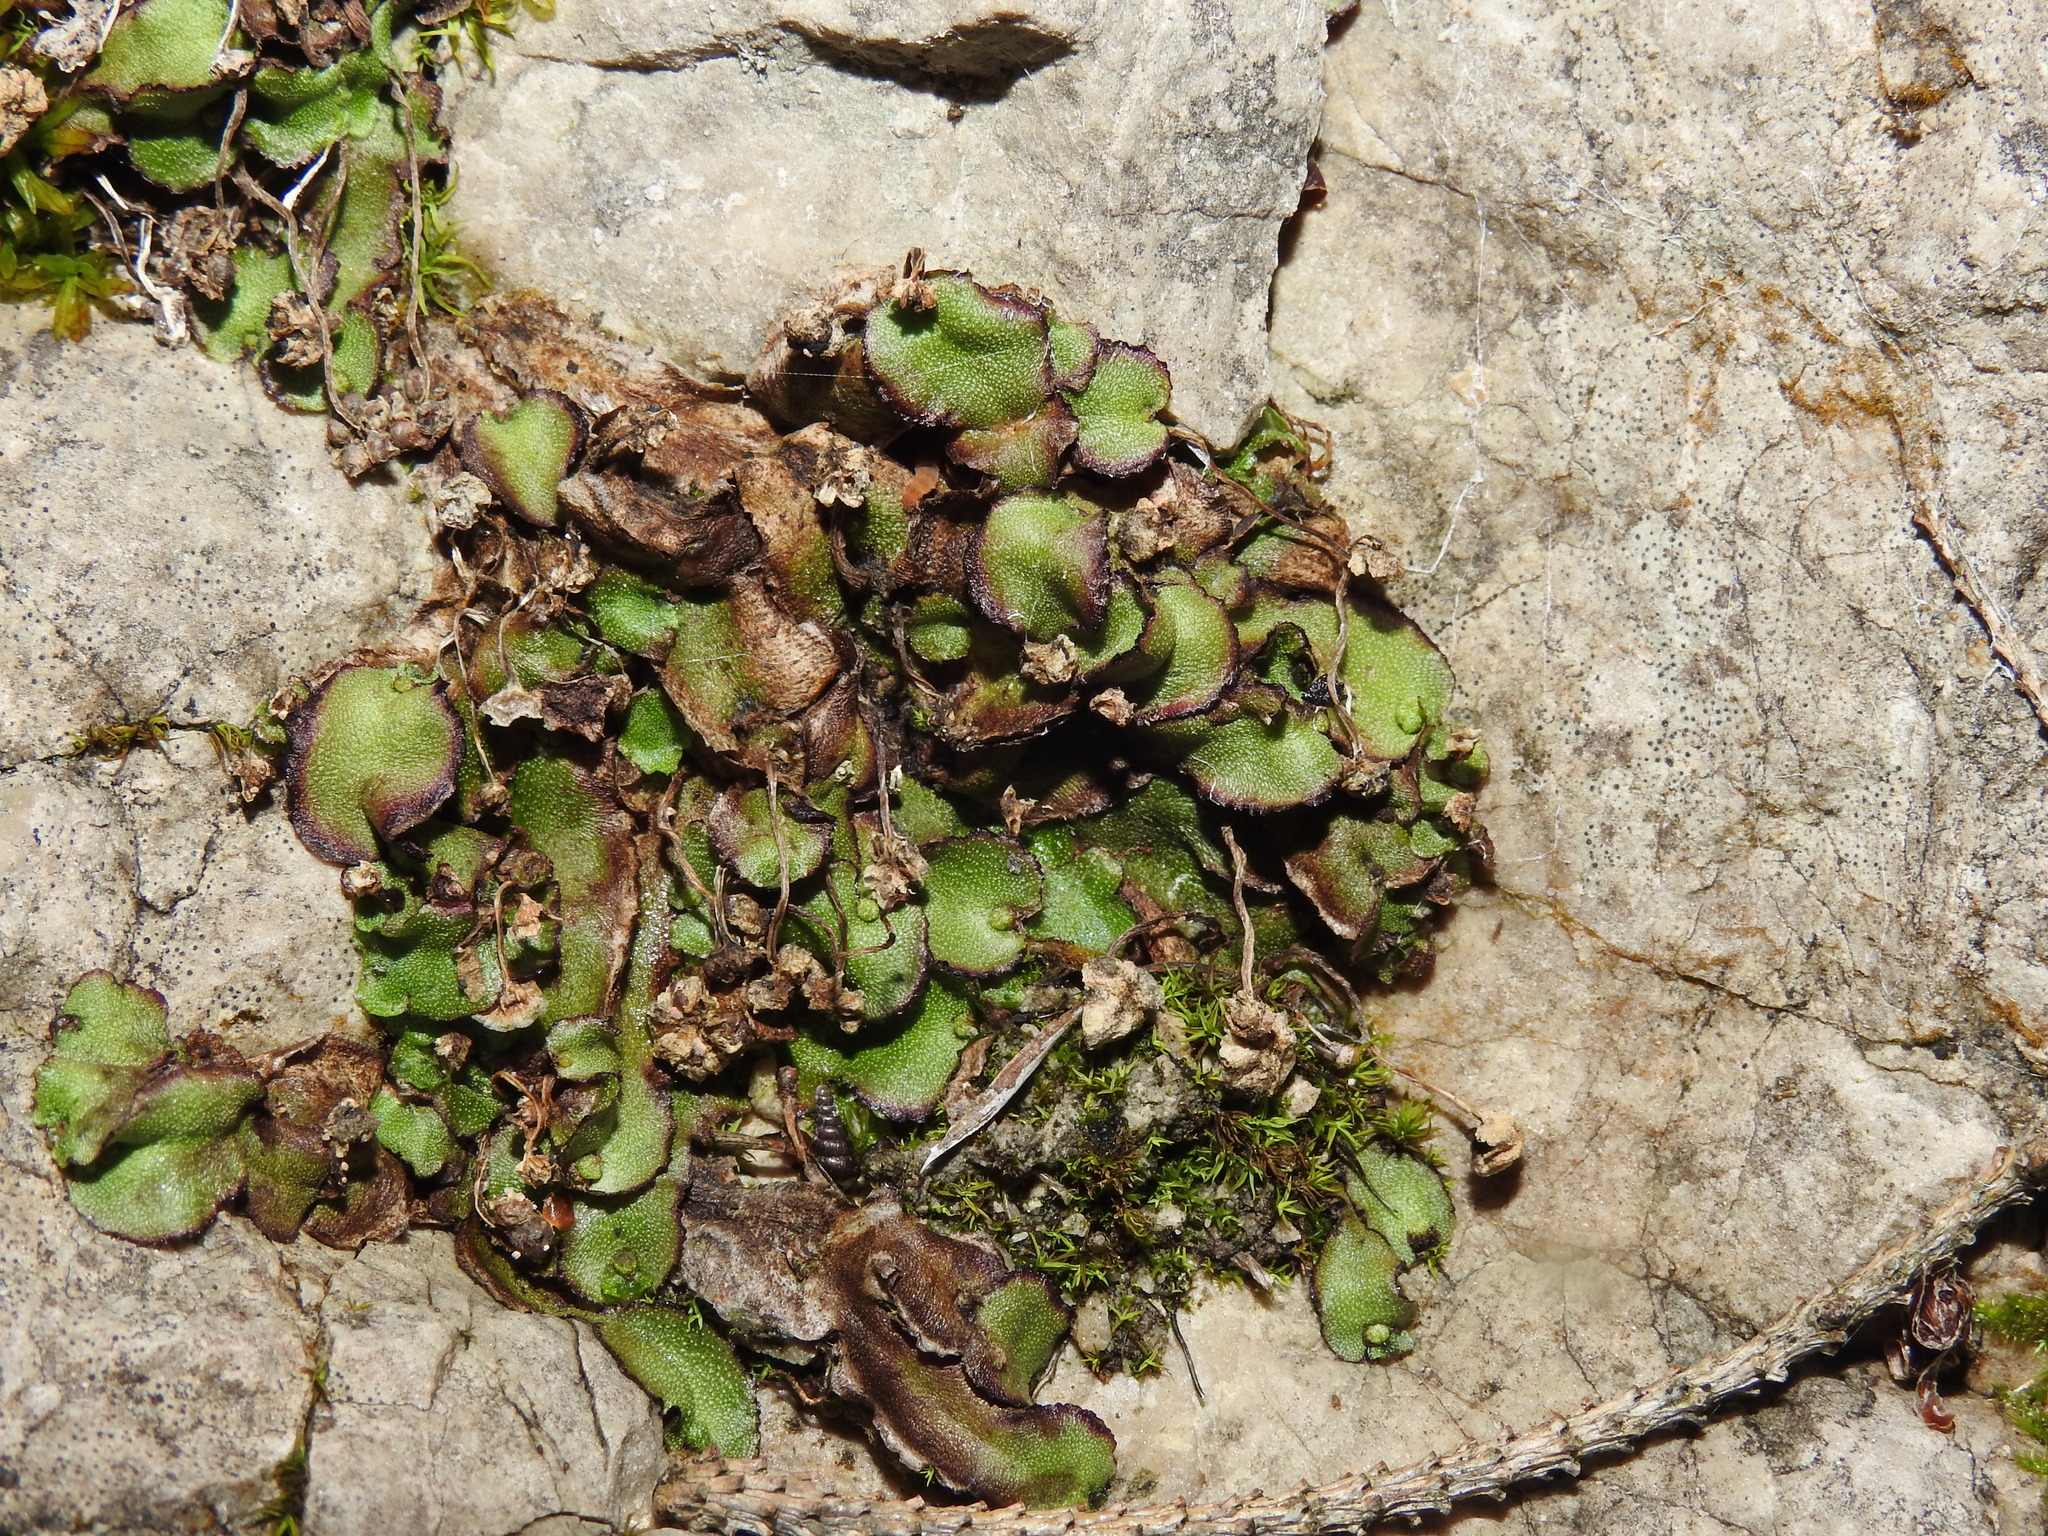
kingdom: Plantae
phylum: Marchantiophyta
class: Marchantiopsida
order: Marchantiales
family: Marchantiaceae
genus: Marchantia
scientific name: Marchantia quadrata
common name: Narrow mushroom-headed liverwort
